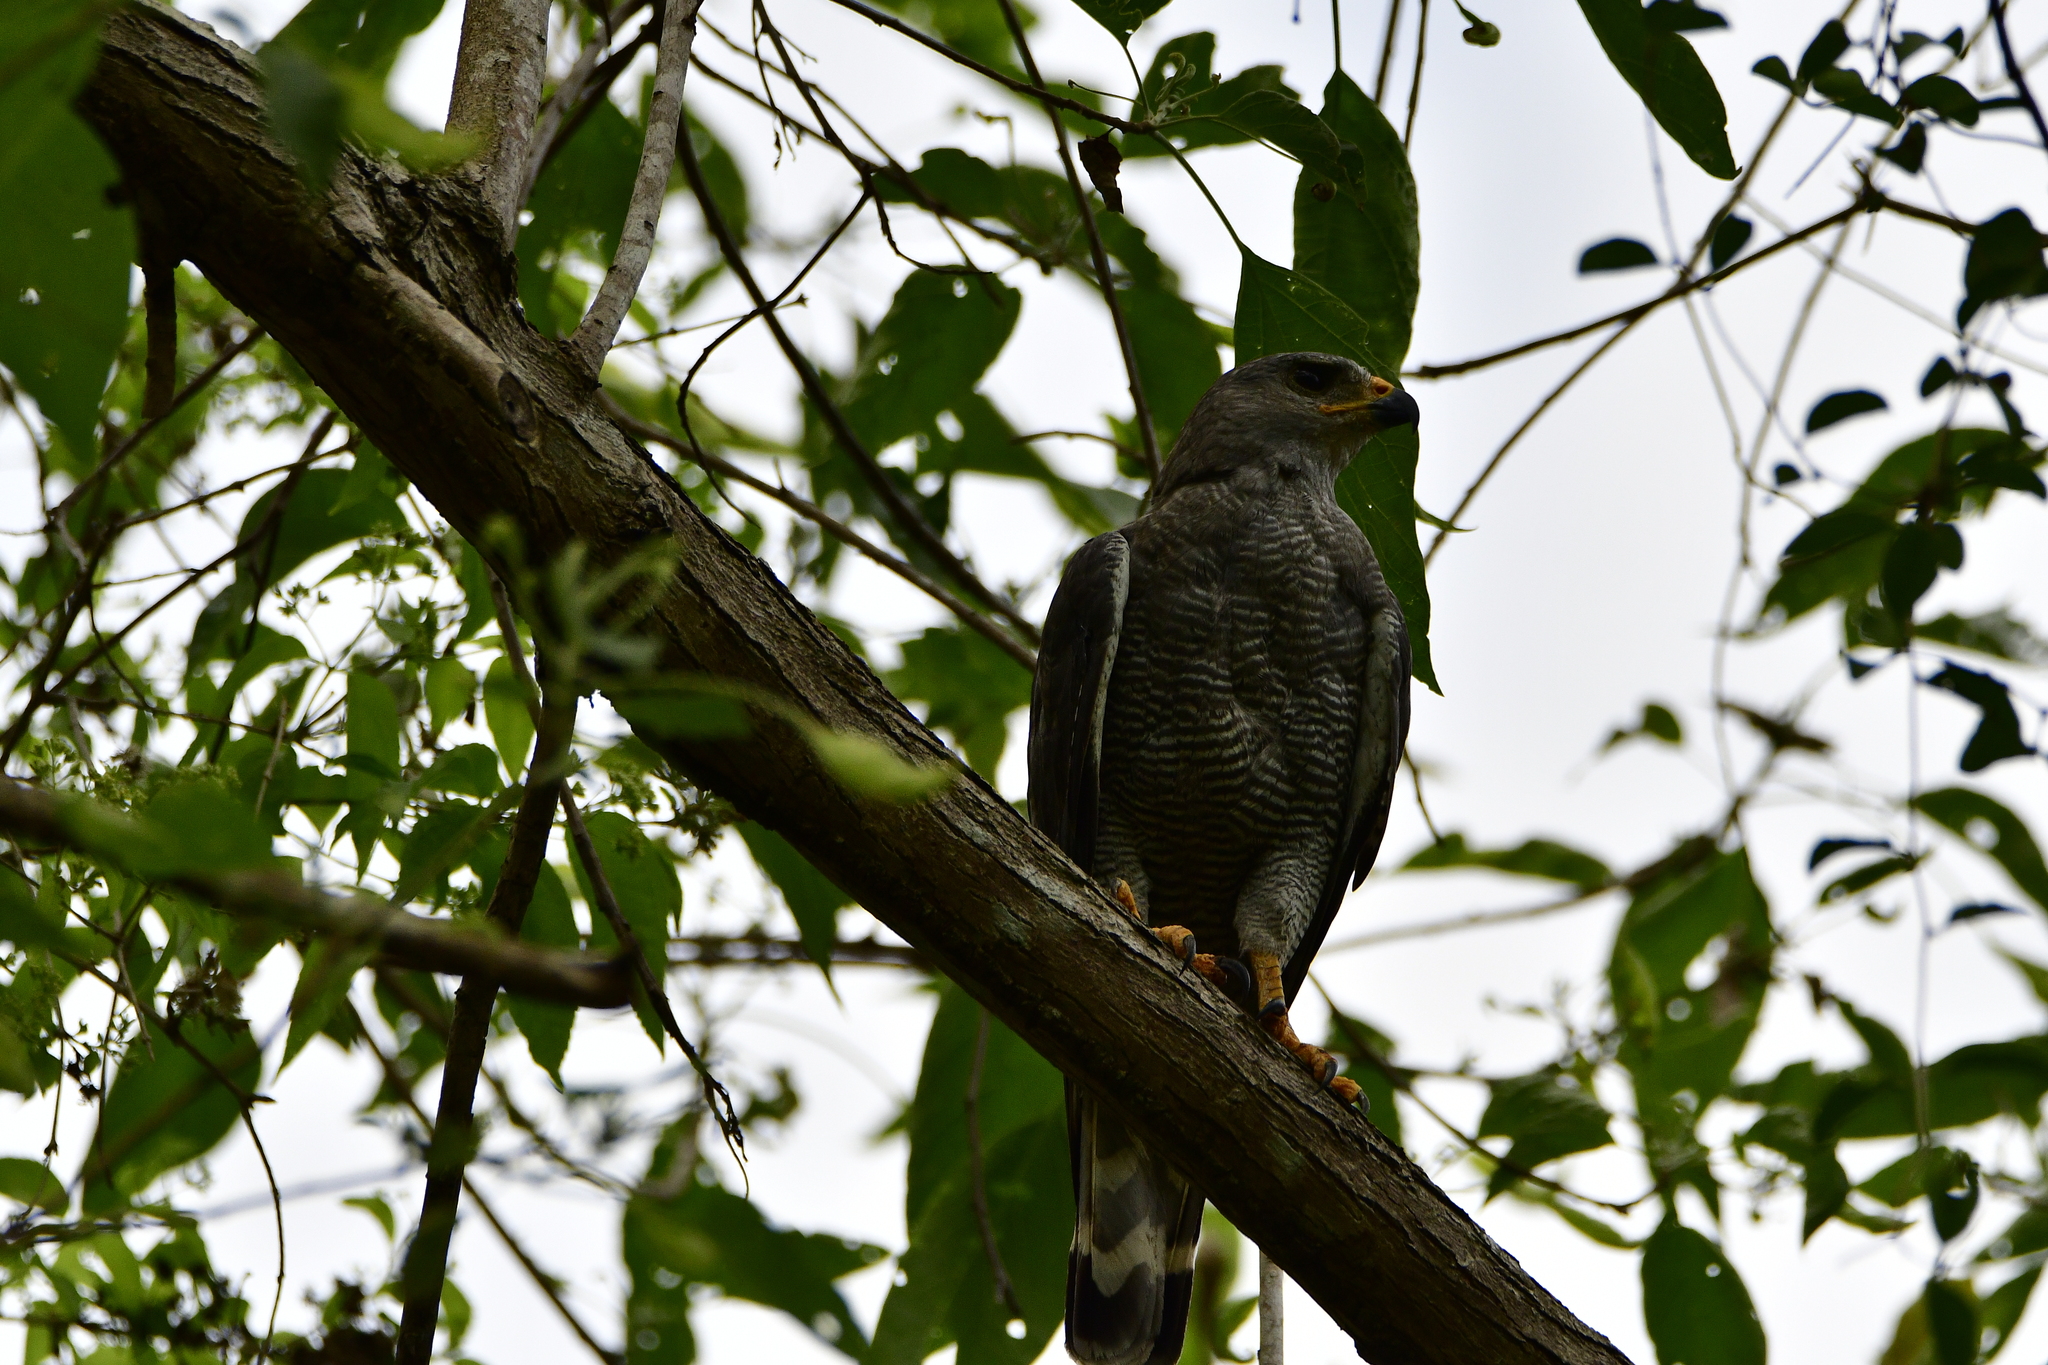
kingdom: Animalia
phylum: Chordata
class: Aves
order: Accipitriformes
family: Accipitridae
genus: Buteo
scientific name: Buteo nitidus
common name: Grey-lined hawk
